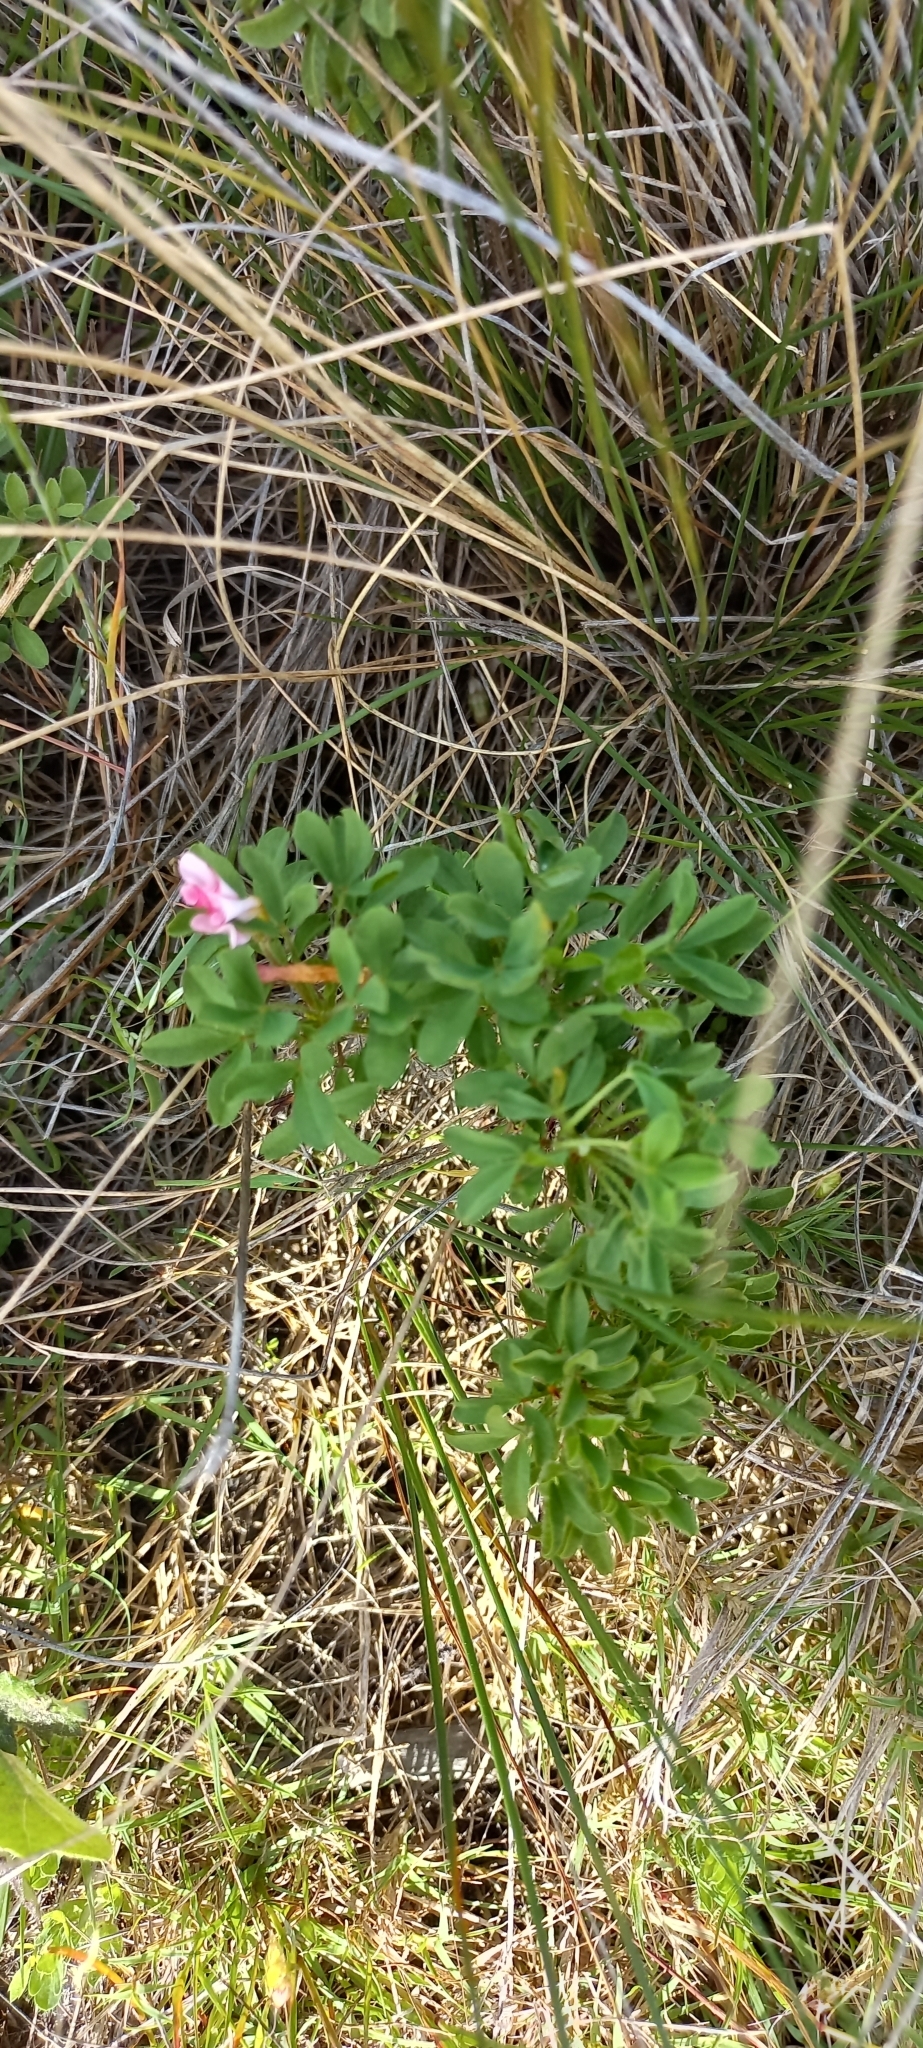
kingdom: Plantae
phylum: Tracheophyta
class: Magnoliopsida
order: Oxalidales
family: Oxalidaceae
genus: Oxalis
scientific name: Oxalis multicaulis
